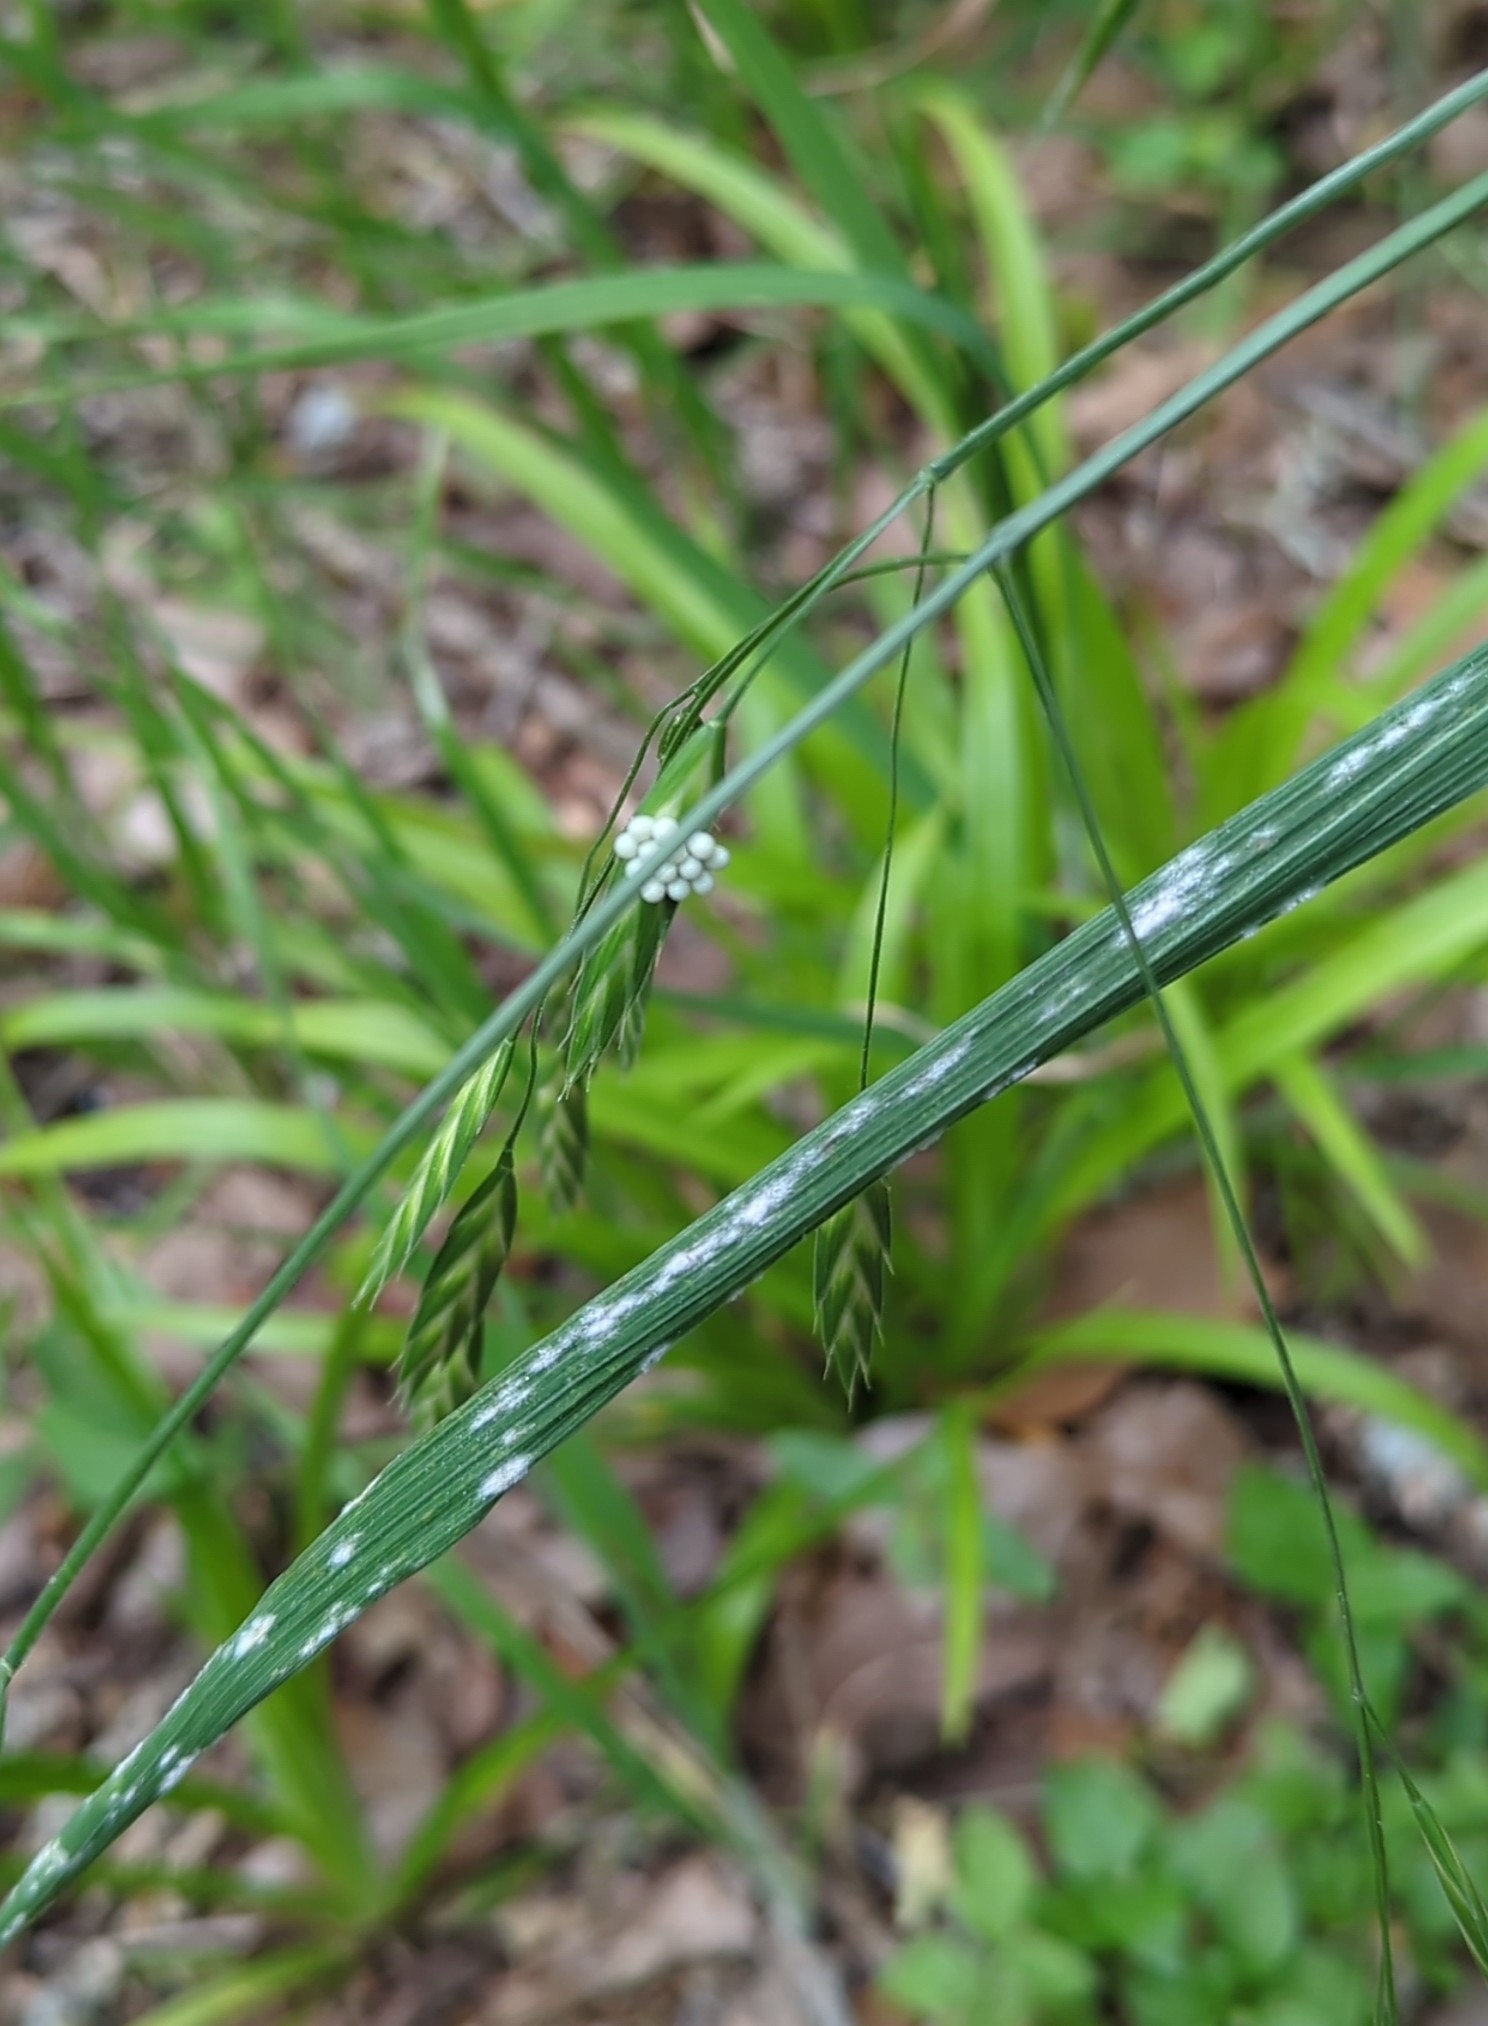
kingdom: Plantae
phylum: Tracheophyta
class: Liliopsida
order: Poales
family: Poaceae
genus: Bromus
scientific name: Bromus catharticus
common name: Rescuegrass
